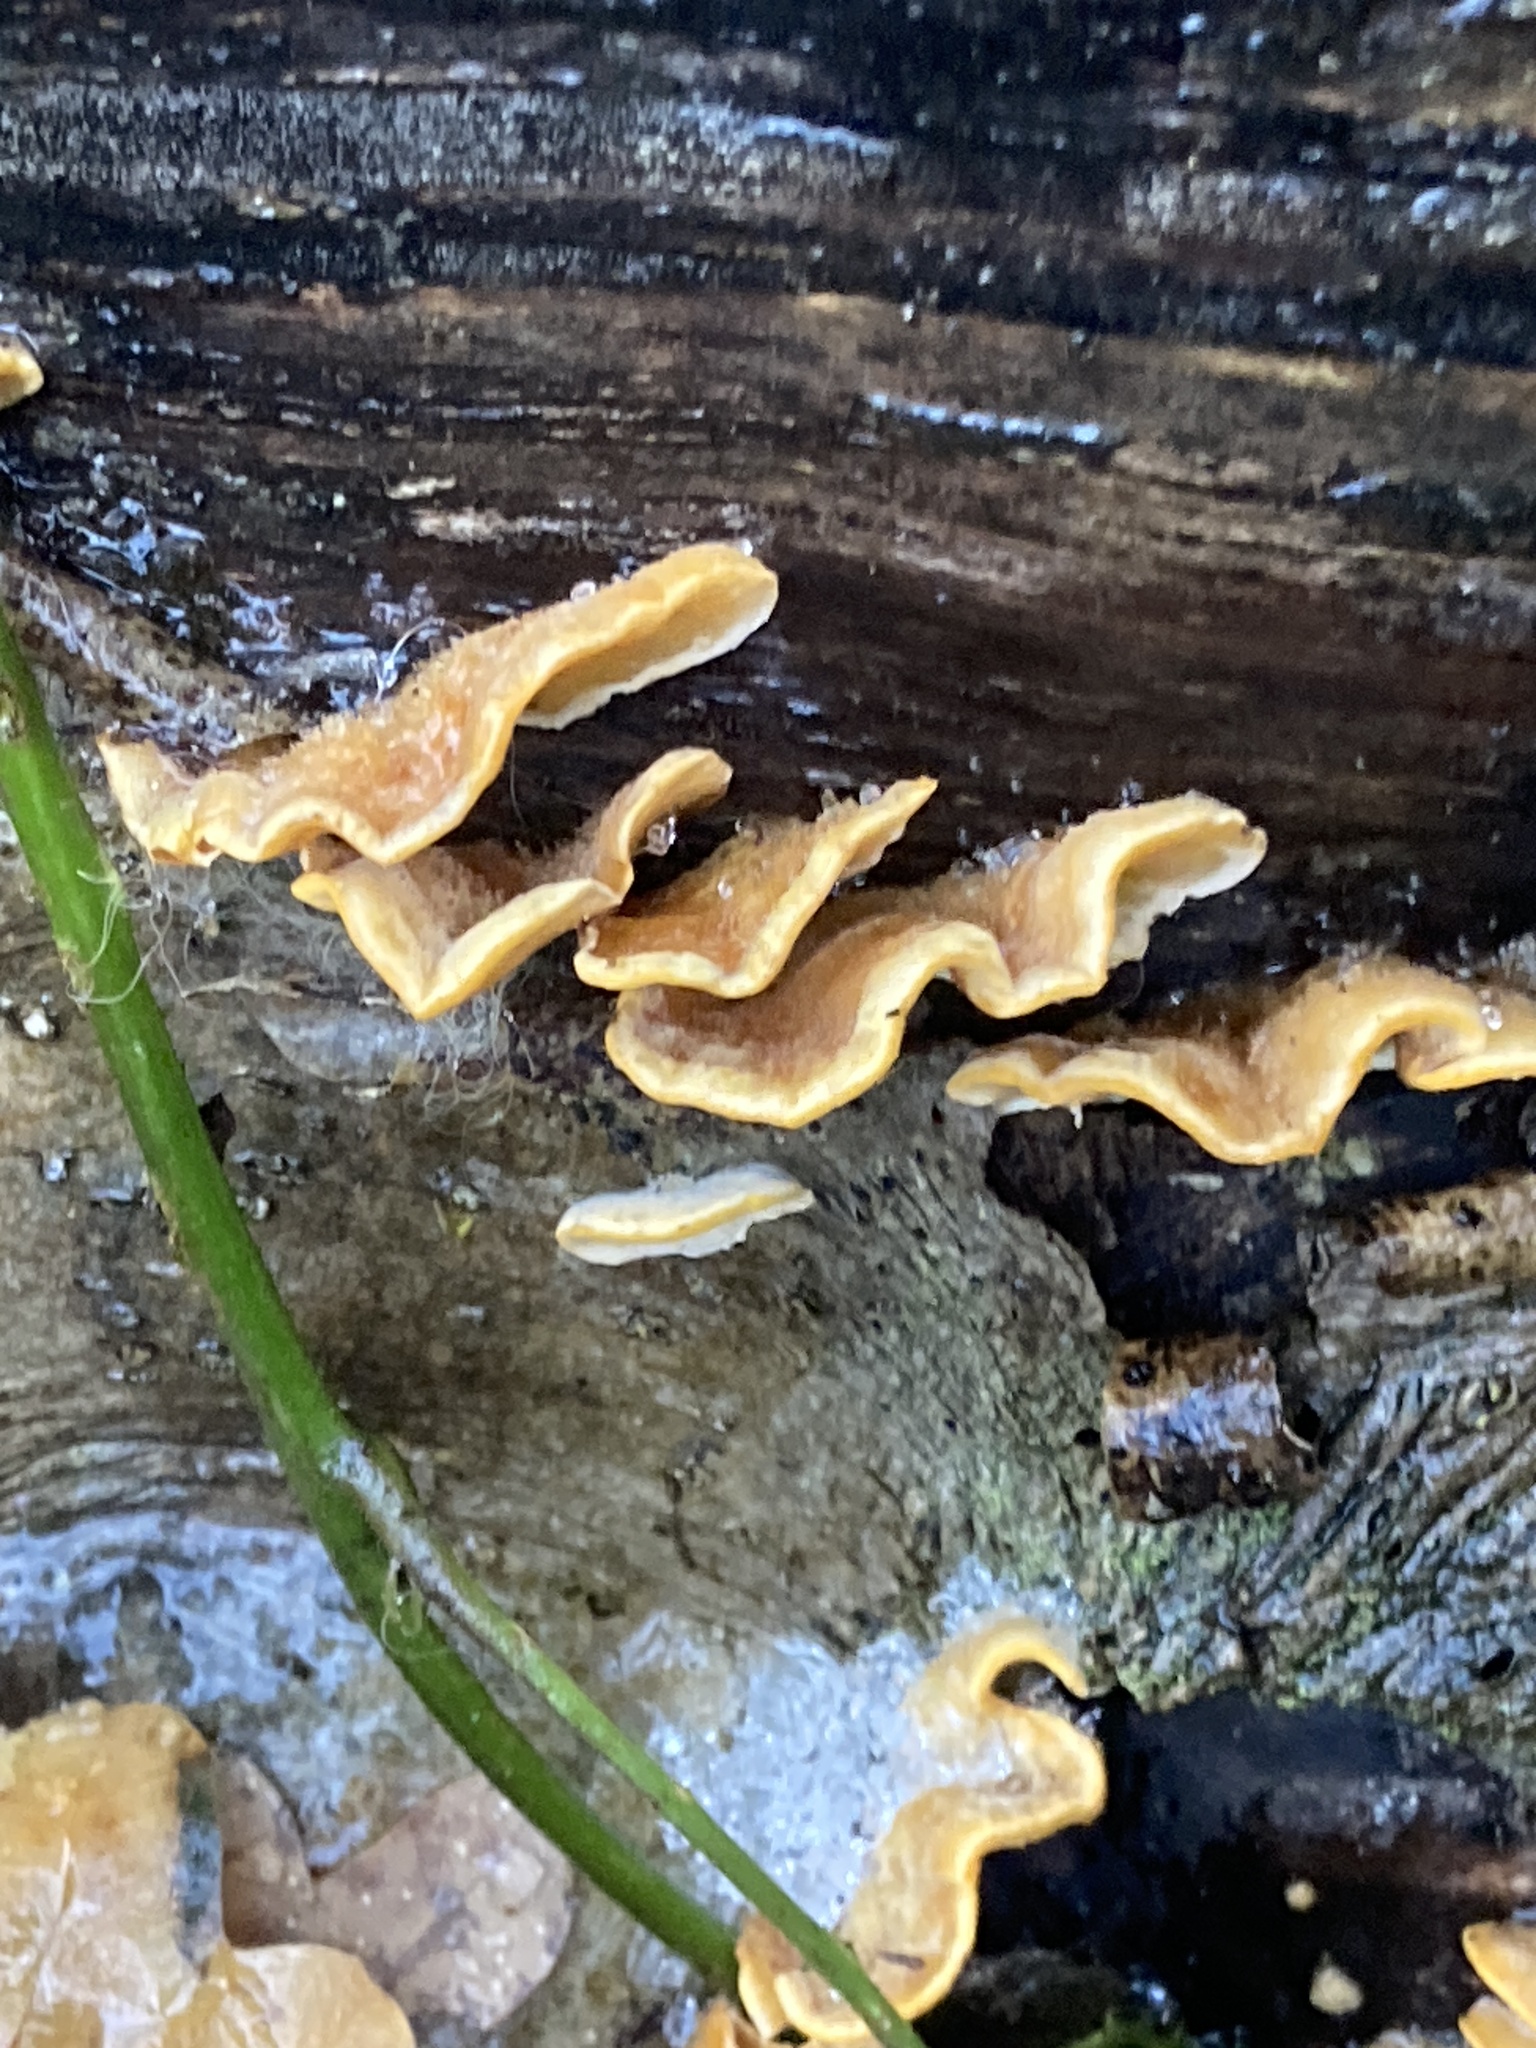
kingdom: Fungi
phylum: Basidiomycota
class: Agaricomycetes
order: Russulales
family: Stereaceae
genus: Stereum
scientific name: Stereum hirsutum
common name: Hairy curtain crust
